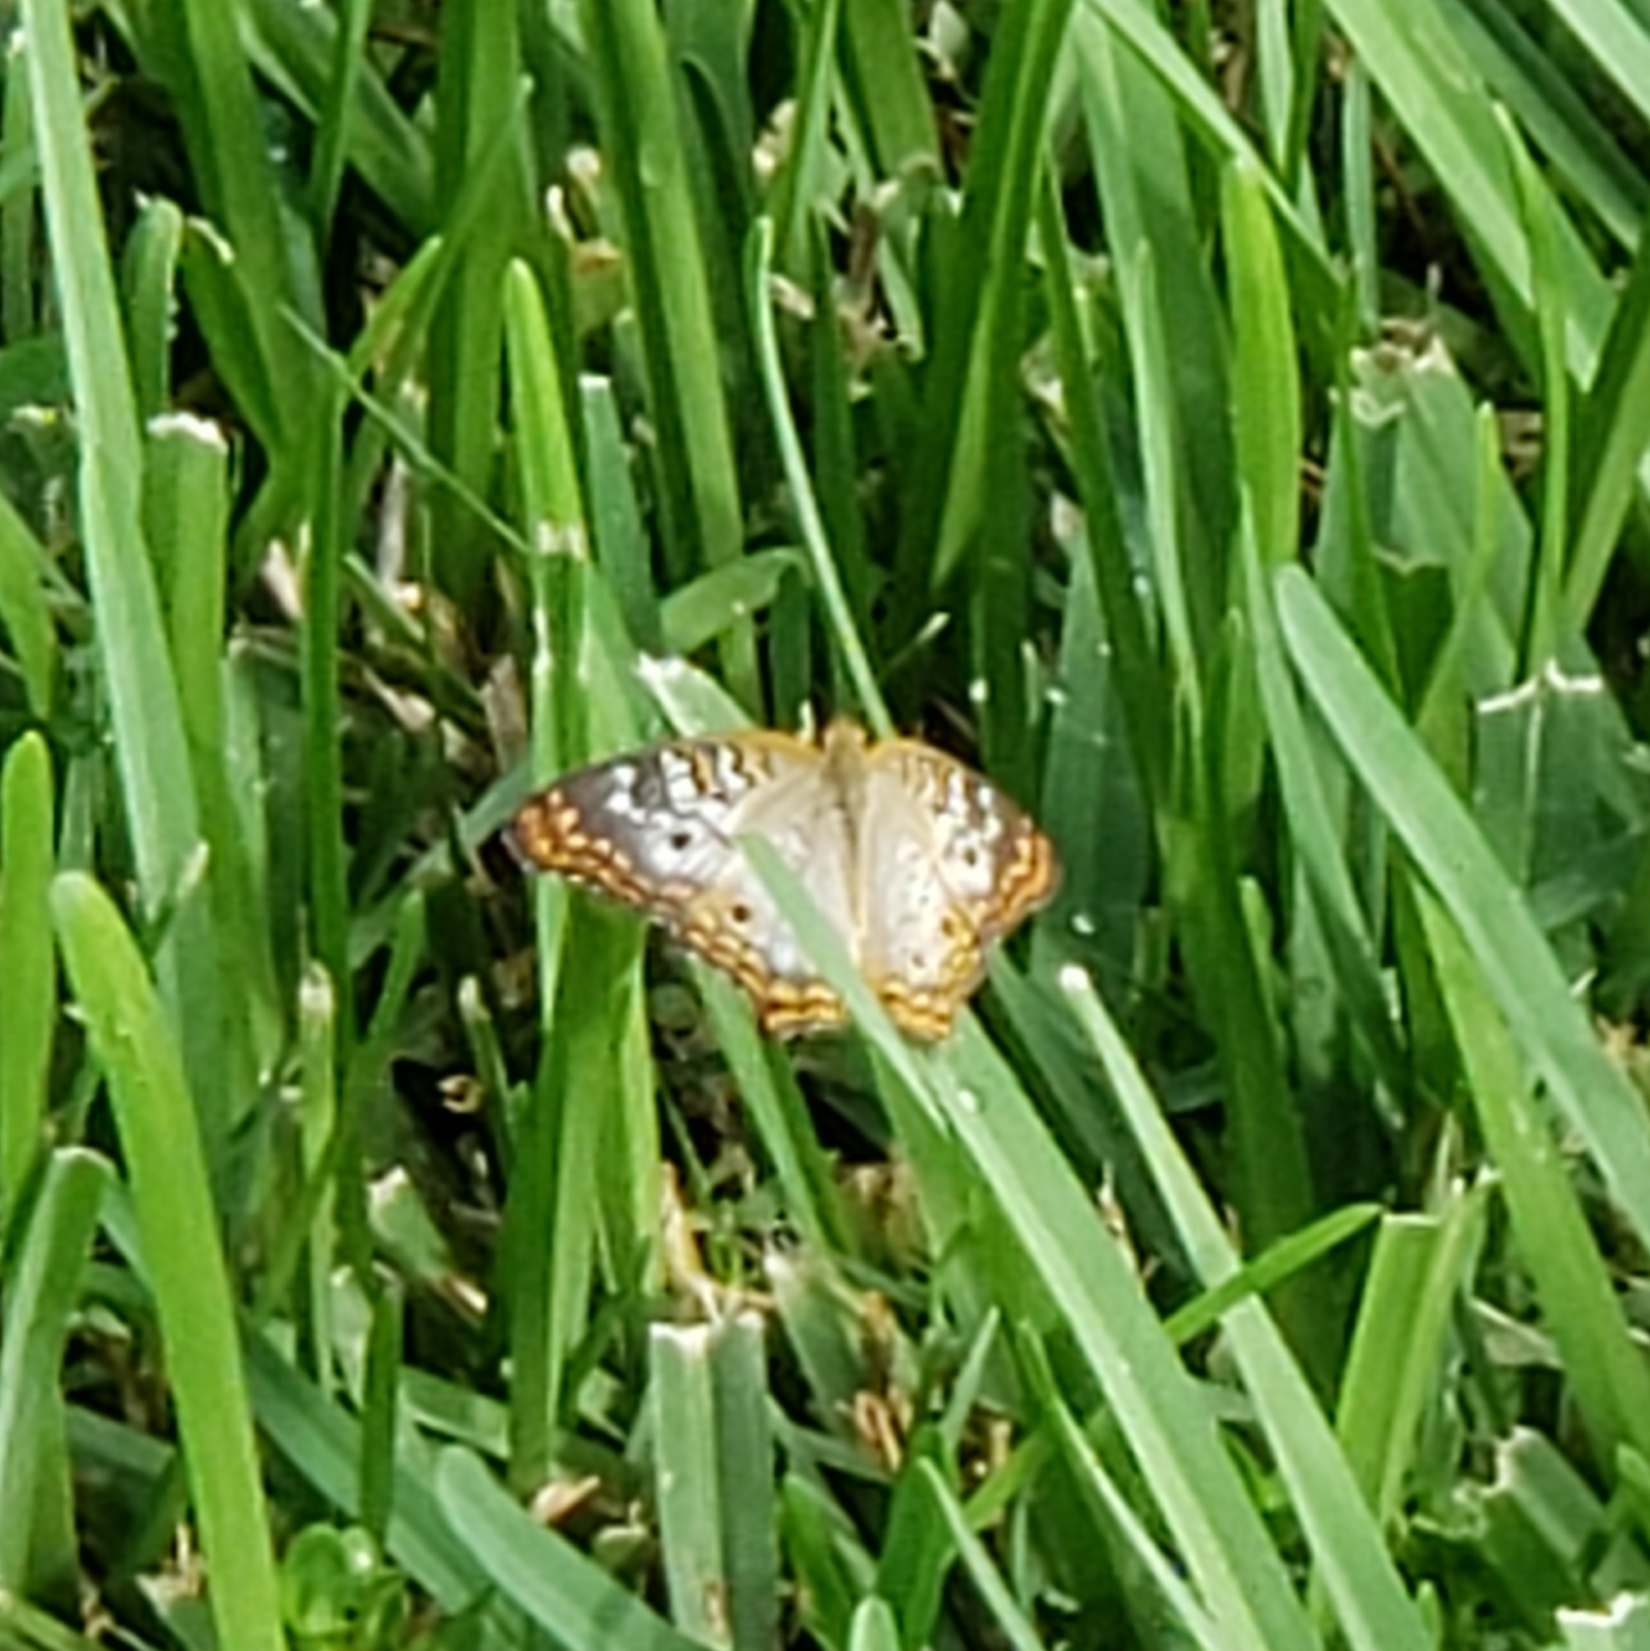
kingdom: Animalia
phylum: Arthropoda
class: Insecta
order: Lepidoptera
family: Nymphalidae
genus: Anartia
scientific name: Anartia jatrophae
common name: White peacock
